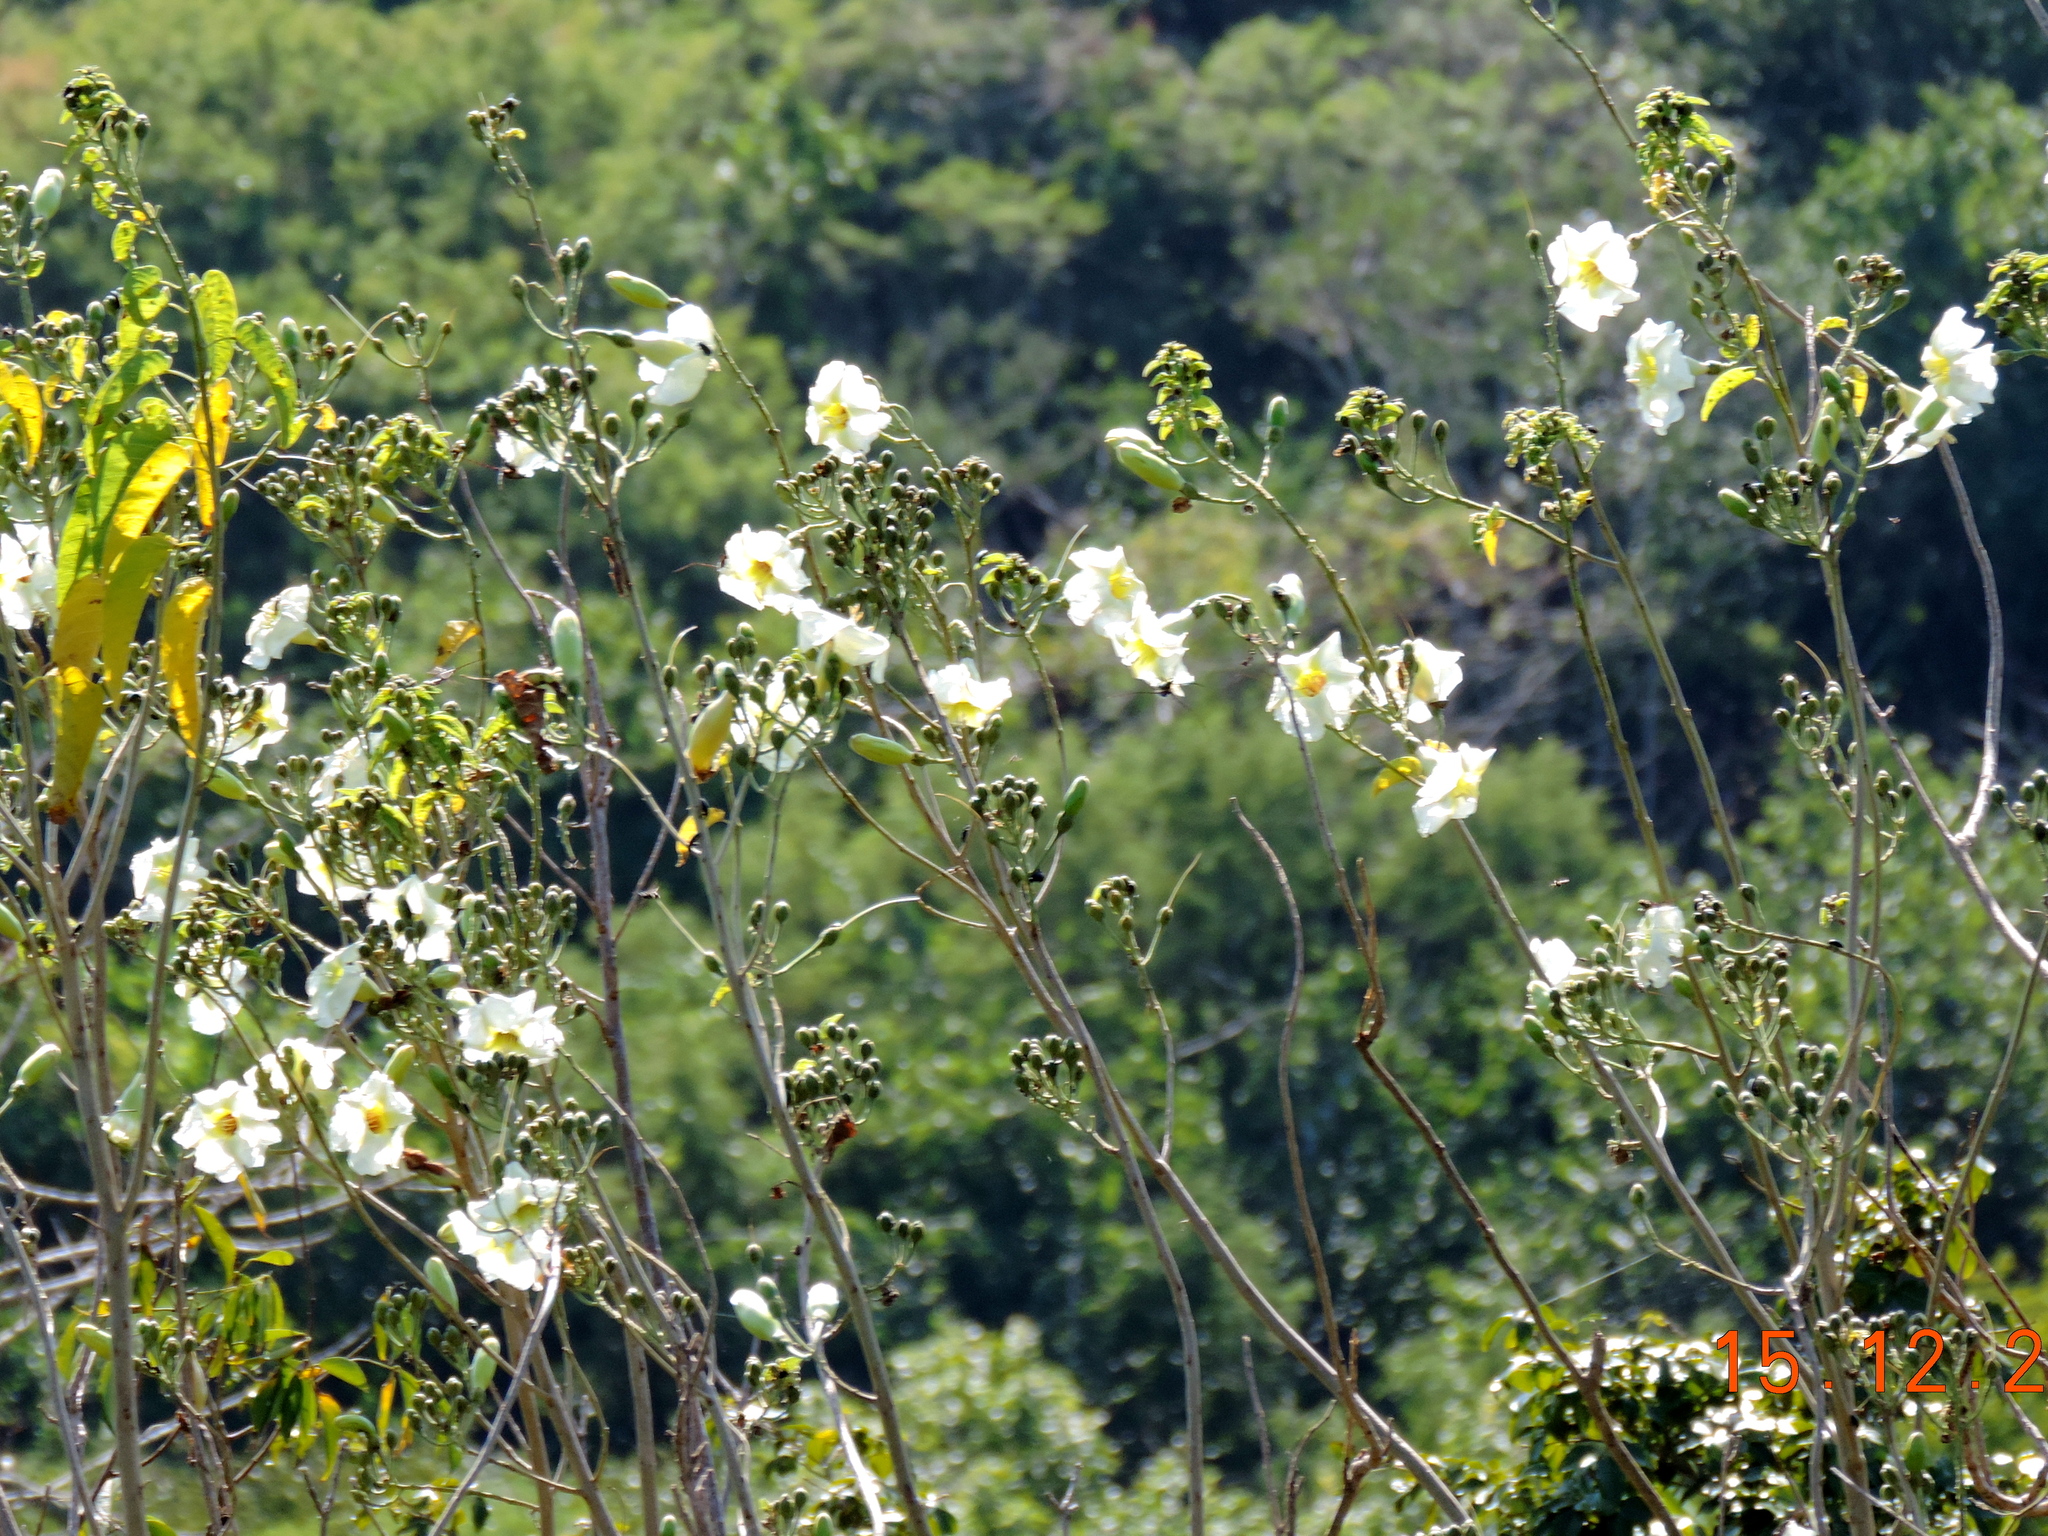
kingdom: Plantae
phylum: Tracheophyta
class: Magnoliopsida
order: Solanales
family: Convolvulaceae
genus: Ipomoea
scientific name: Ipomoea arborescens
